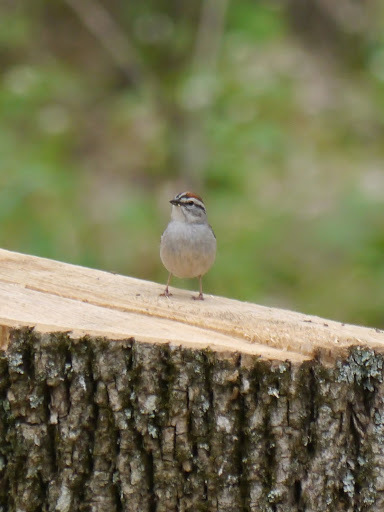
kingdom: Animalia
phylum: Chordata
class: Aves
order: Passeriformes
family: Passerellidae
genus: Spizella
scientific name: Spizella passerina
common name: Chipping sparrow
